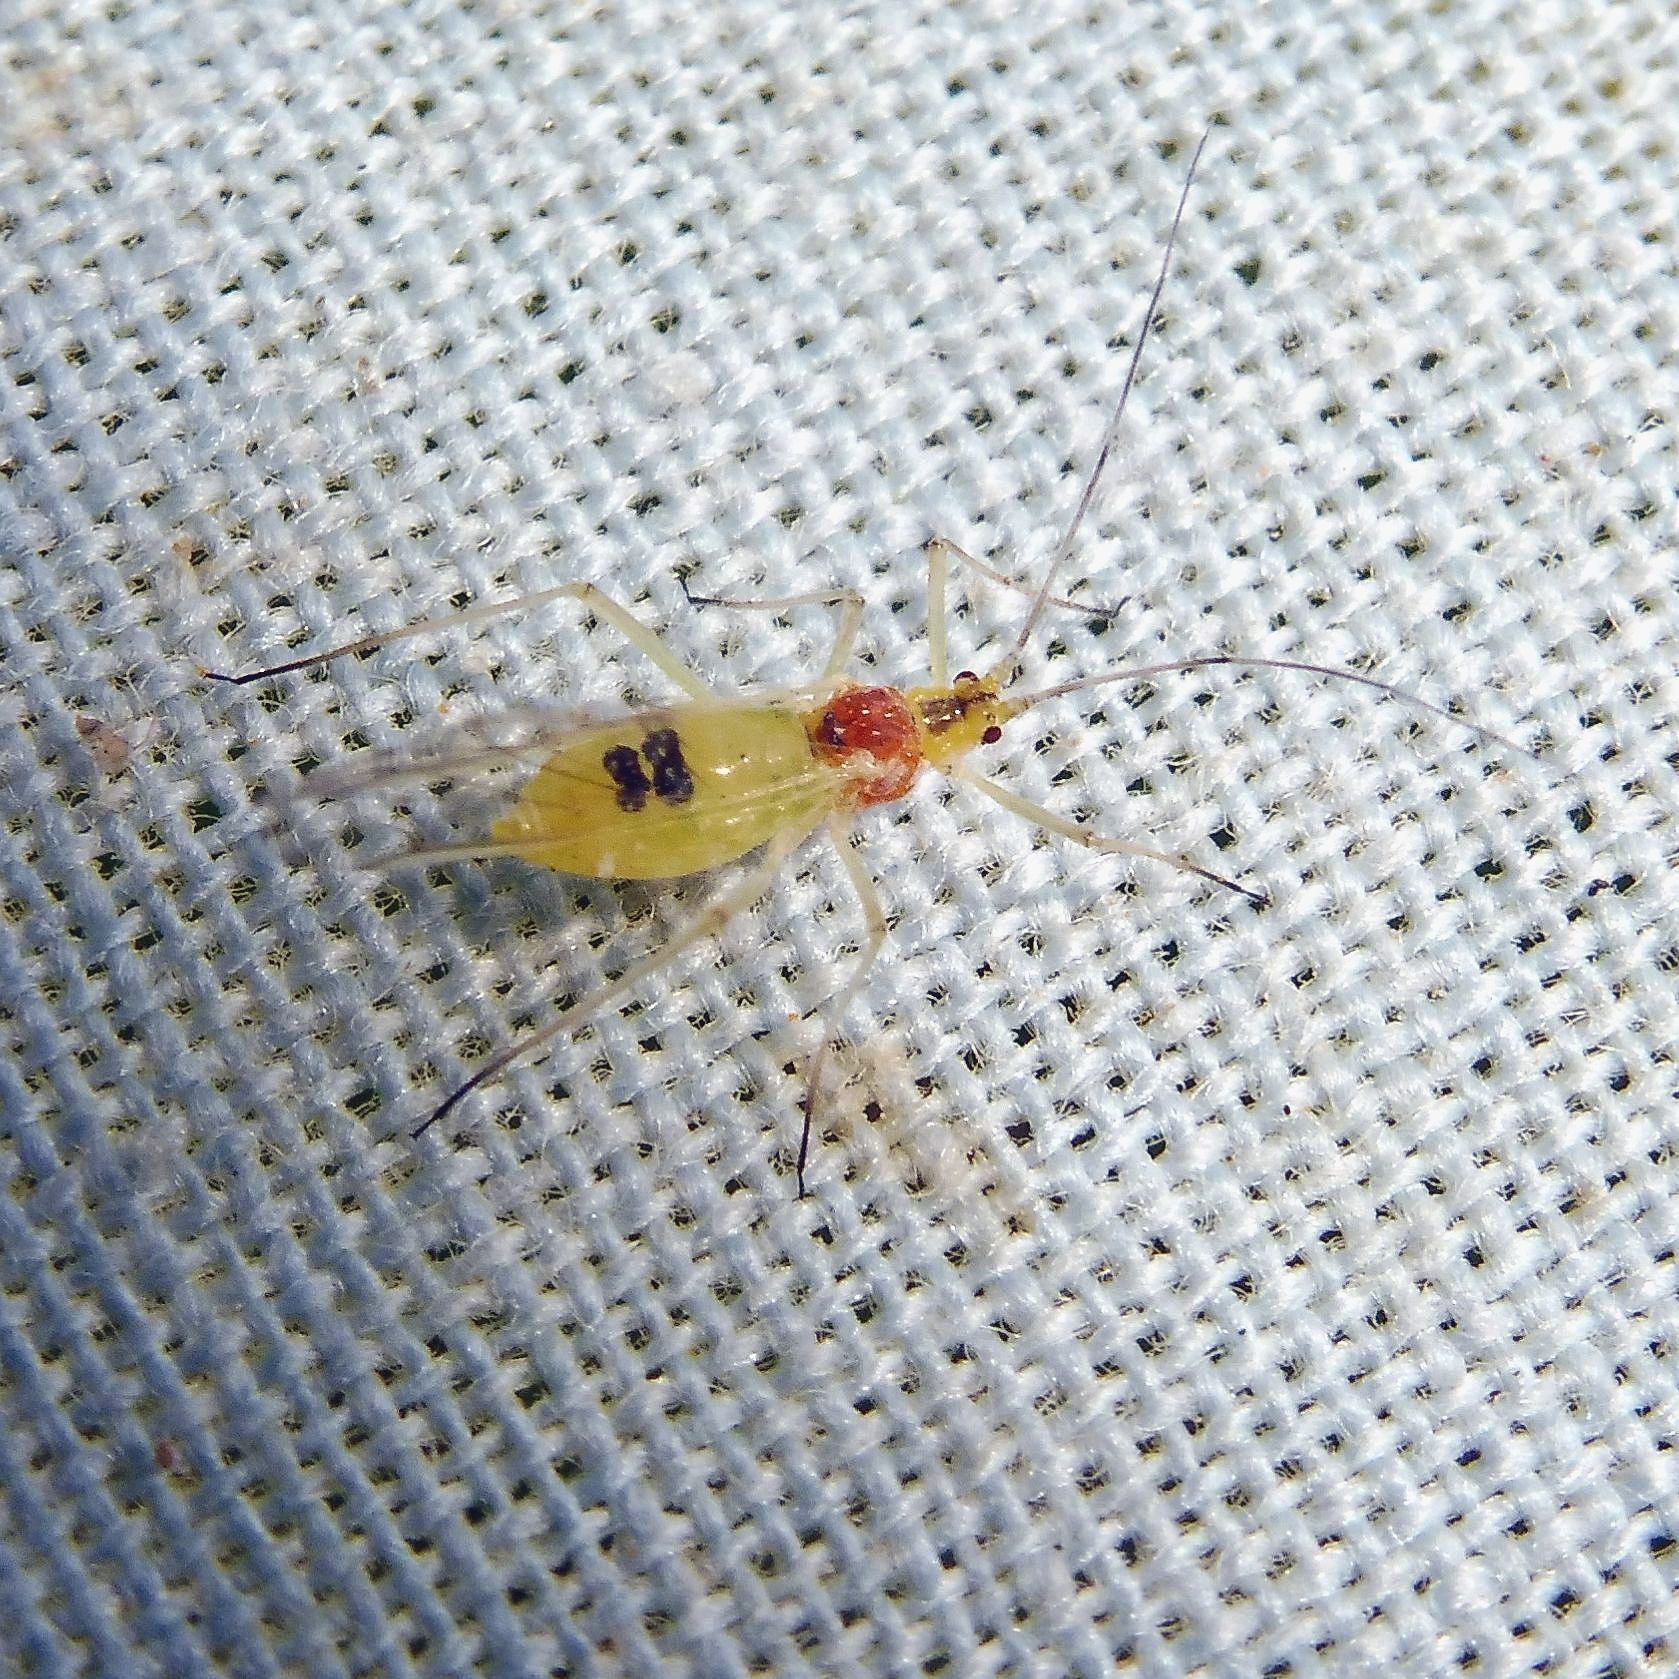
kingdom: Animalia
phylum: Arthropoda
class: Insecta
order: Hemiptera
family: Aphididae
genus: Euceraphis
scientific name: Euceraphis
